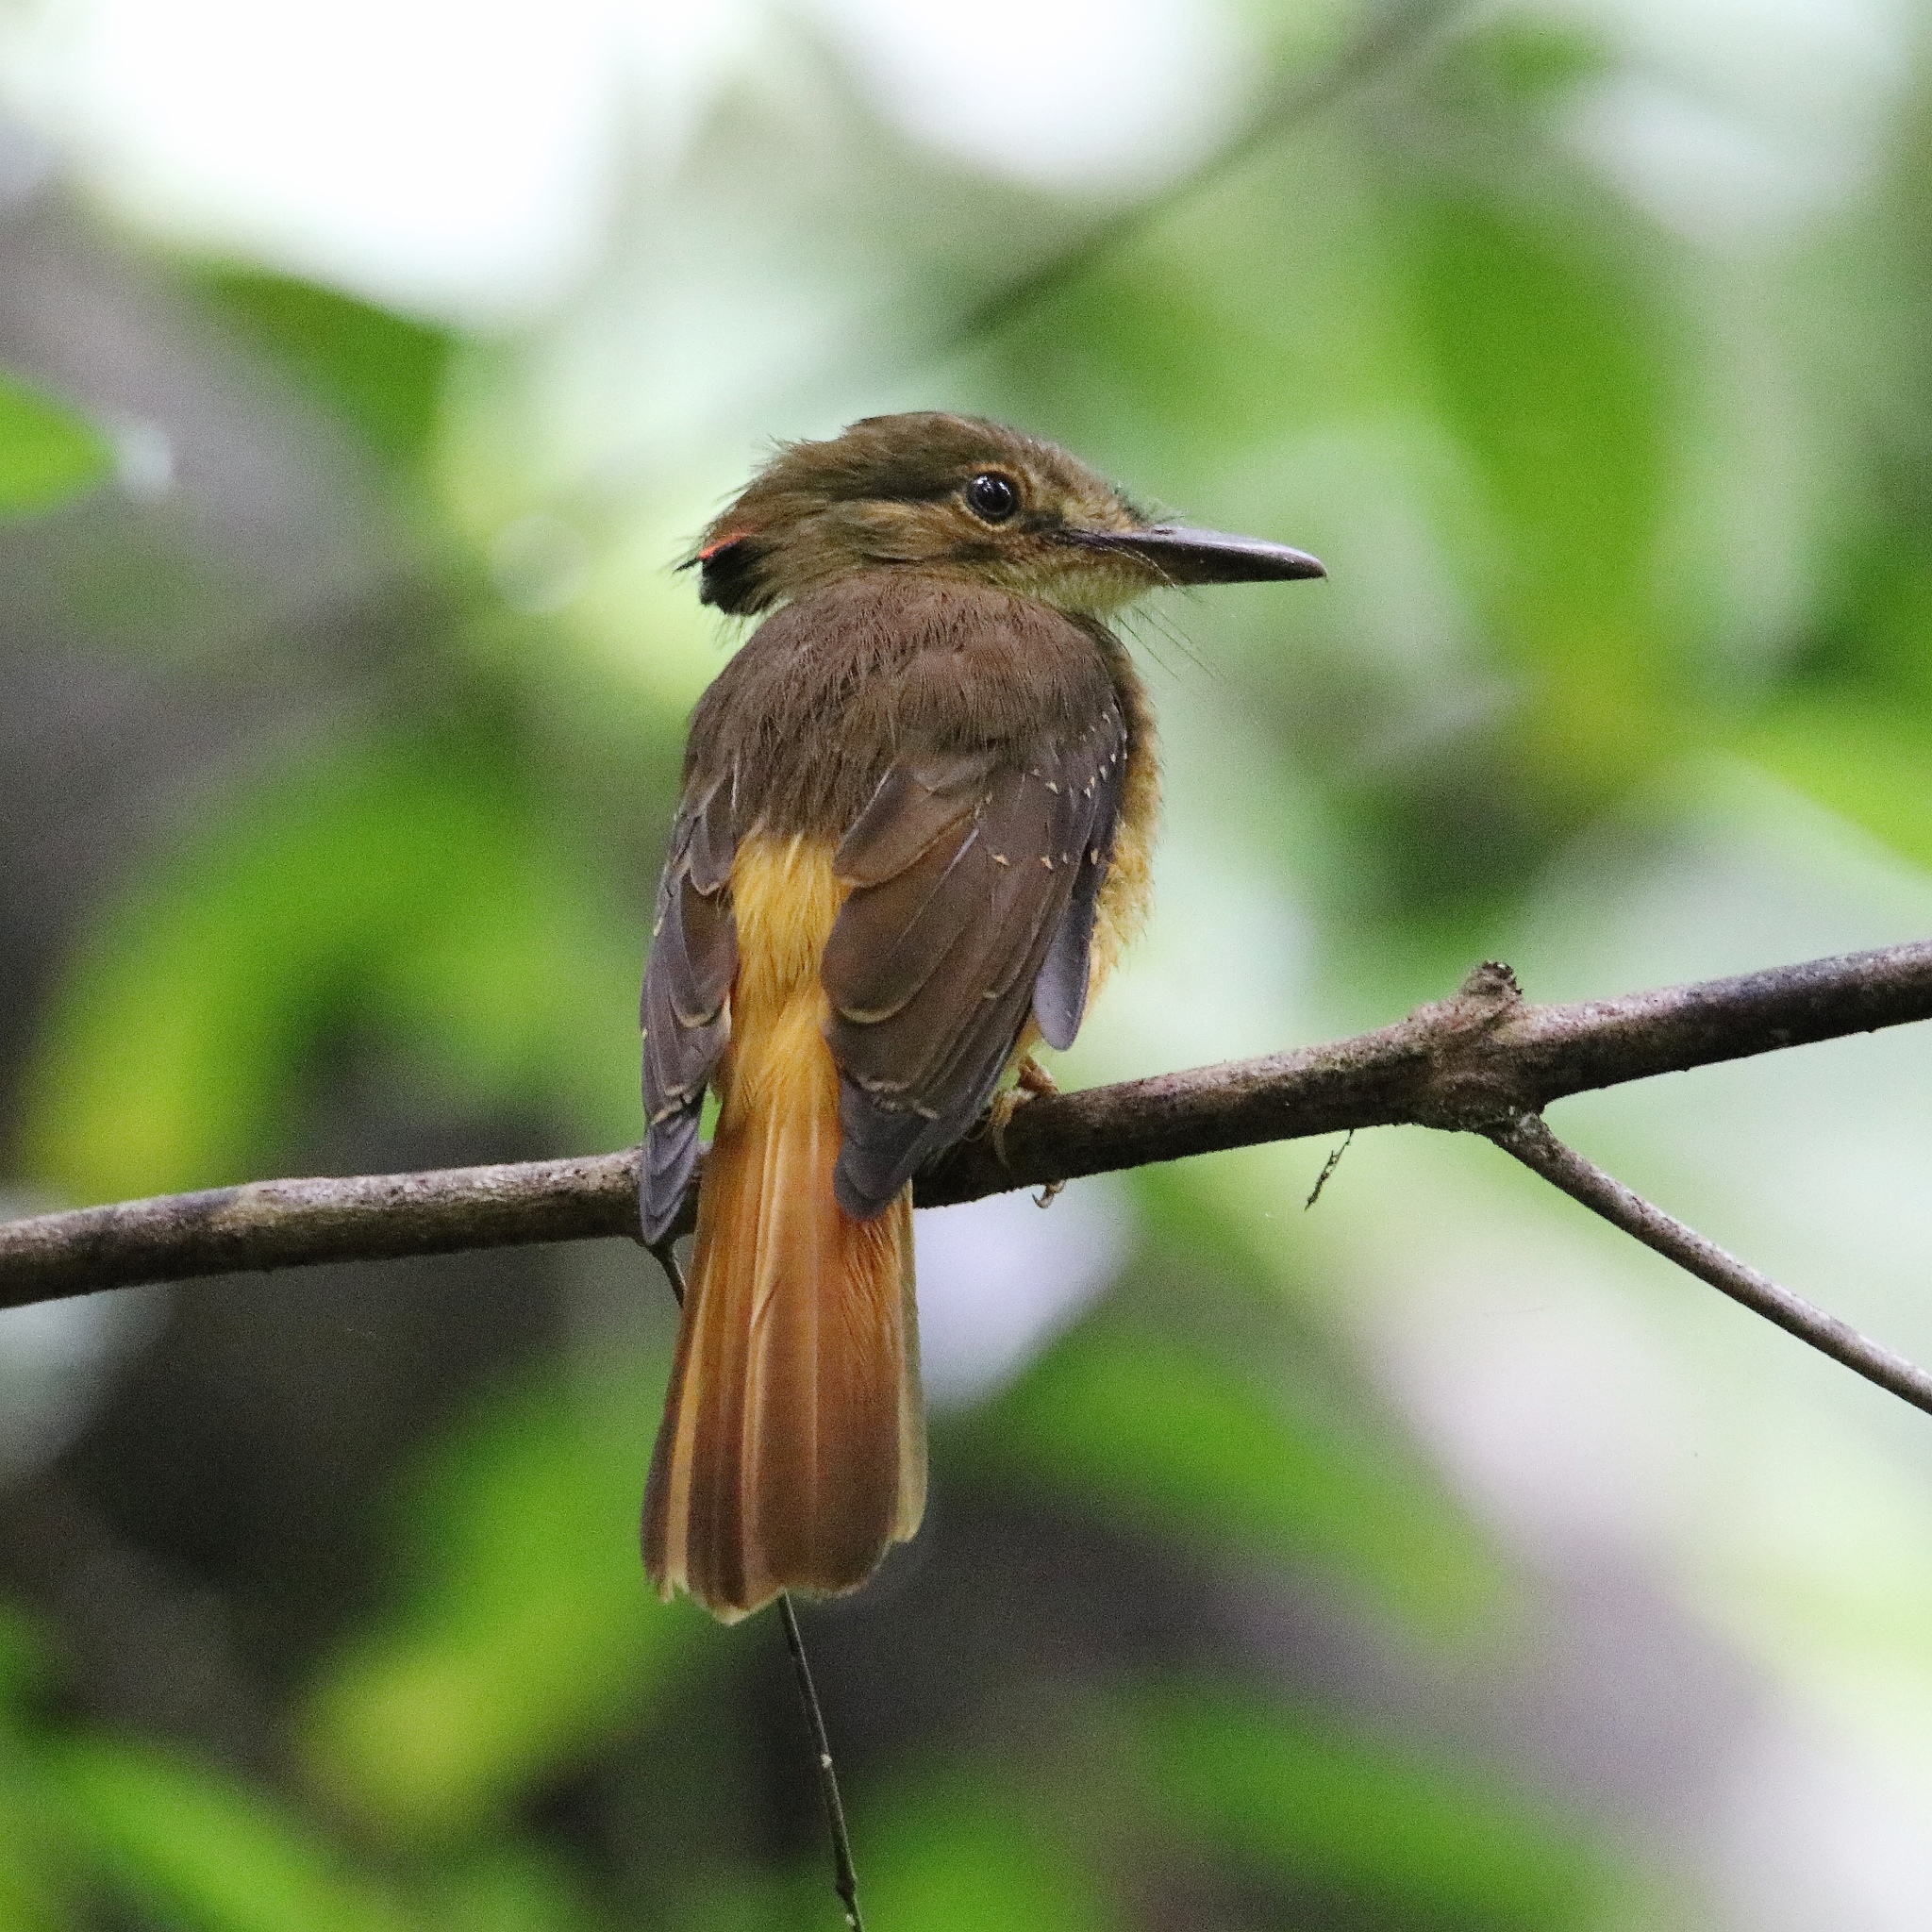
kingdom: Animalia
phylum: Chordata
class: Aves
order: Passeriformes
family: Tyrannidae
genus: Onychorhynchus
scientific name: Onychorhynchus coronatus
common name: Royal flycatcher
